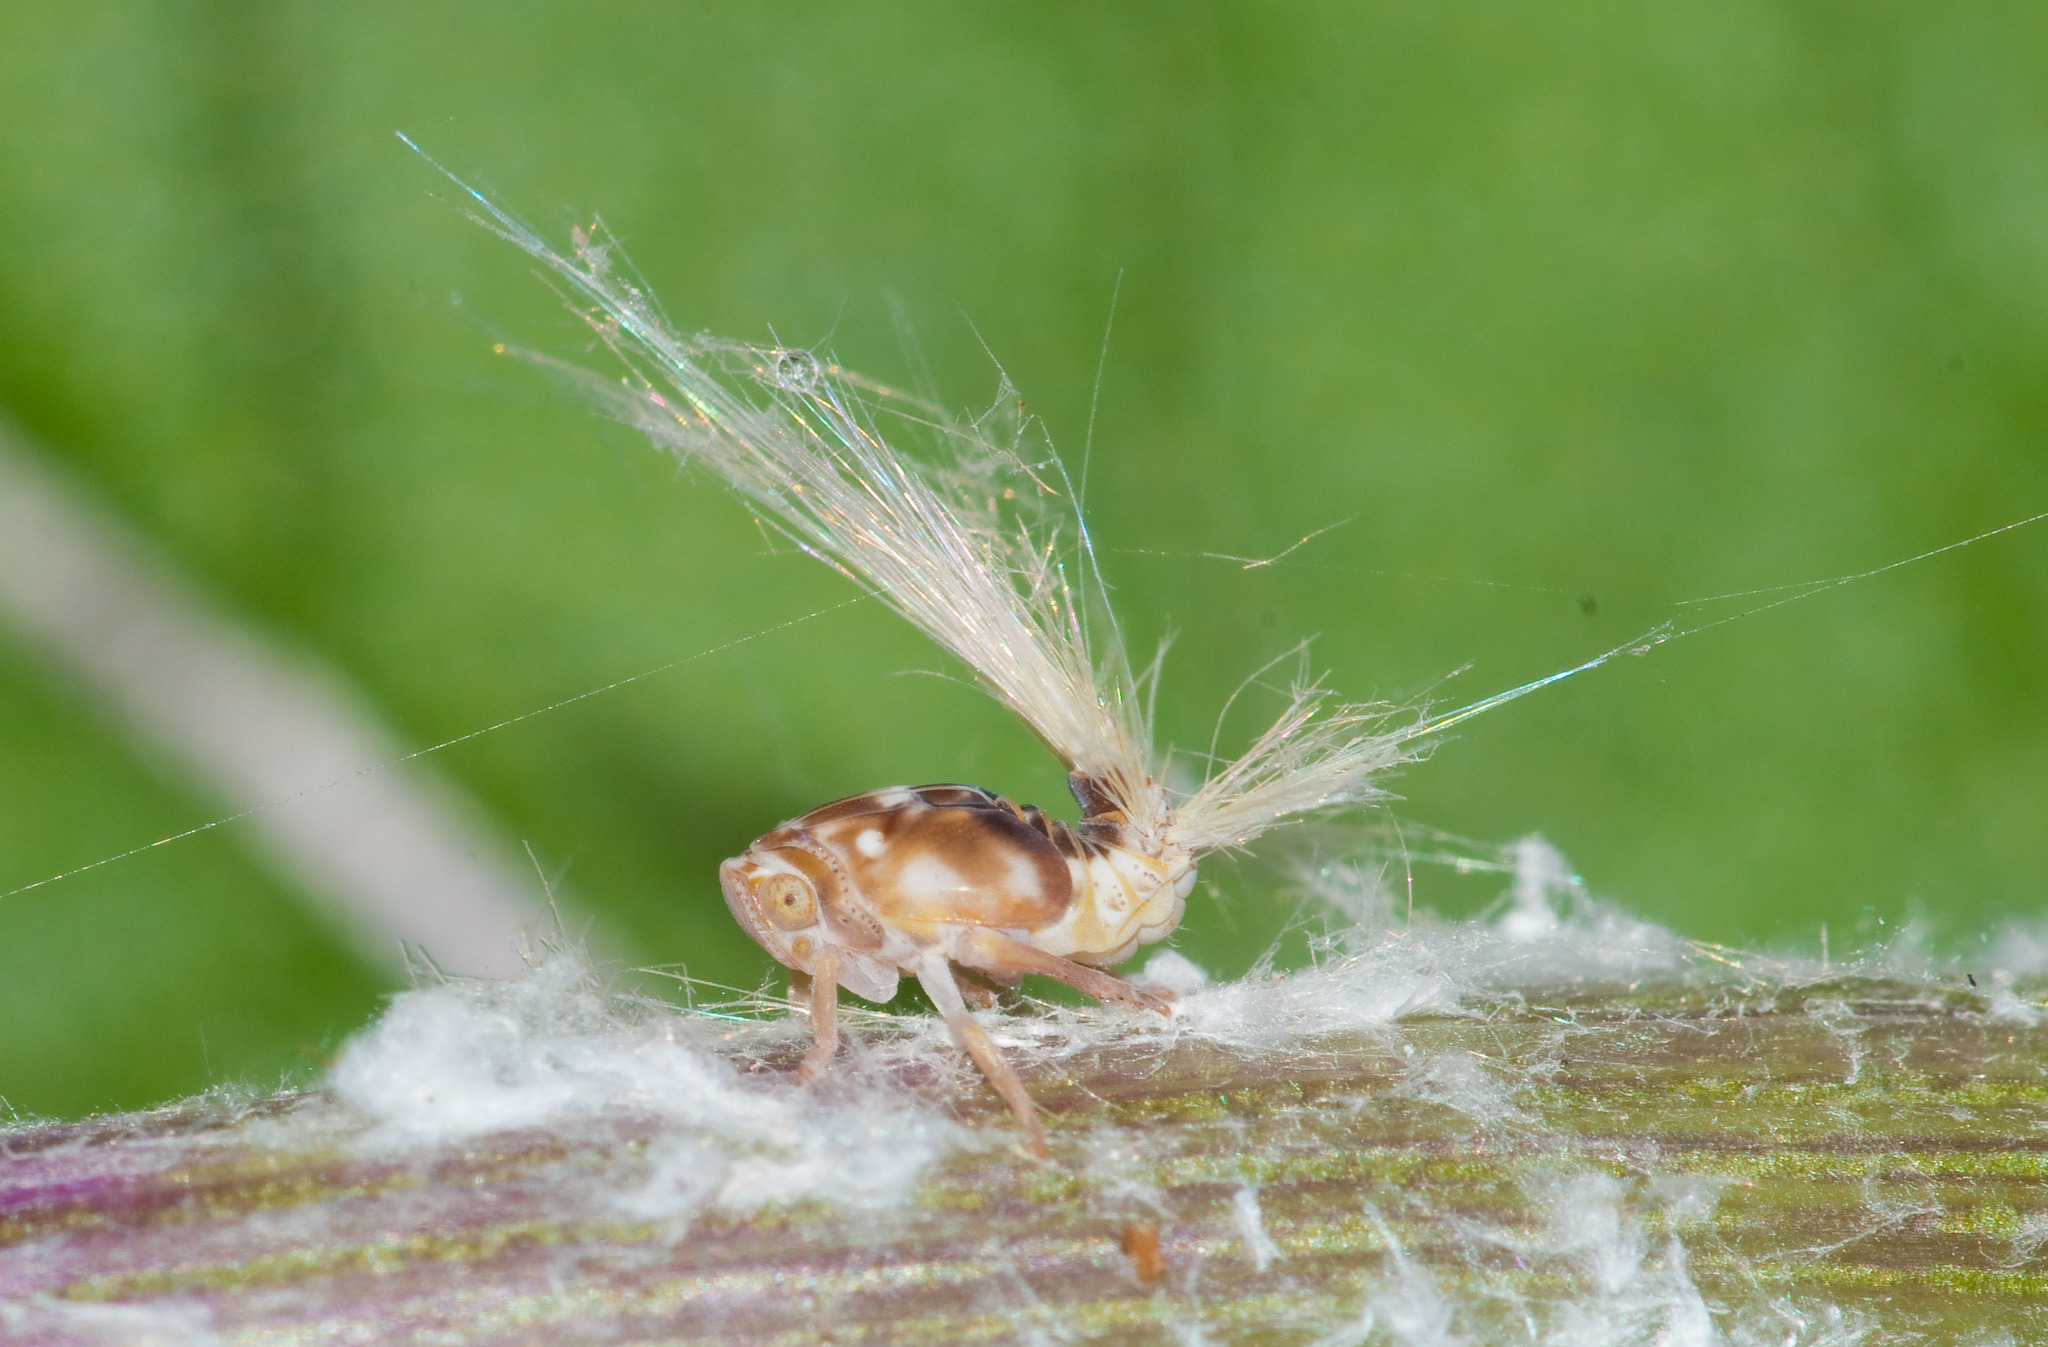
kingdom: Animalia
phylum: Arthropoda
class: Insecta
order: Hemiptera
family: Ricaniidae
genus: Scolypopa
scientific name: Scolypopa australis
